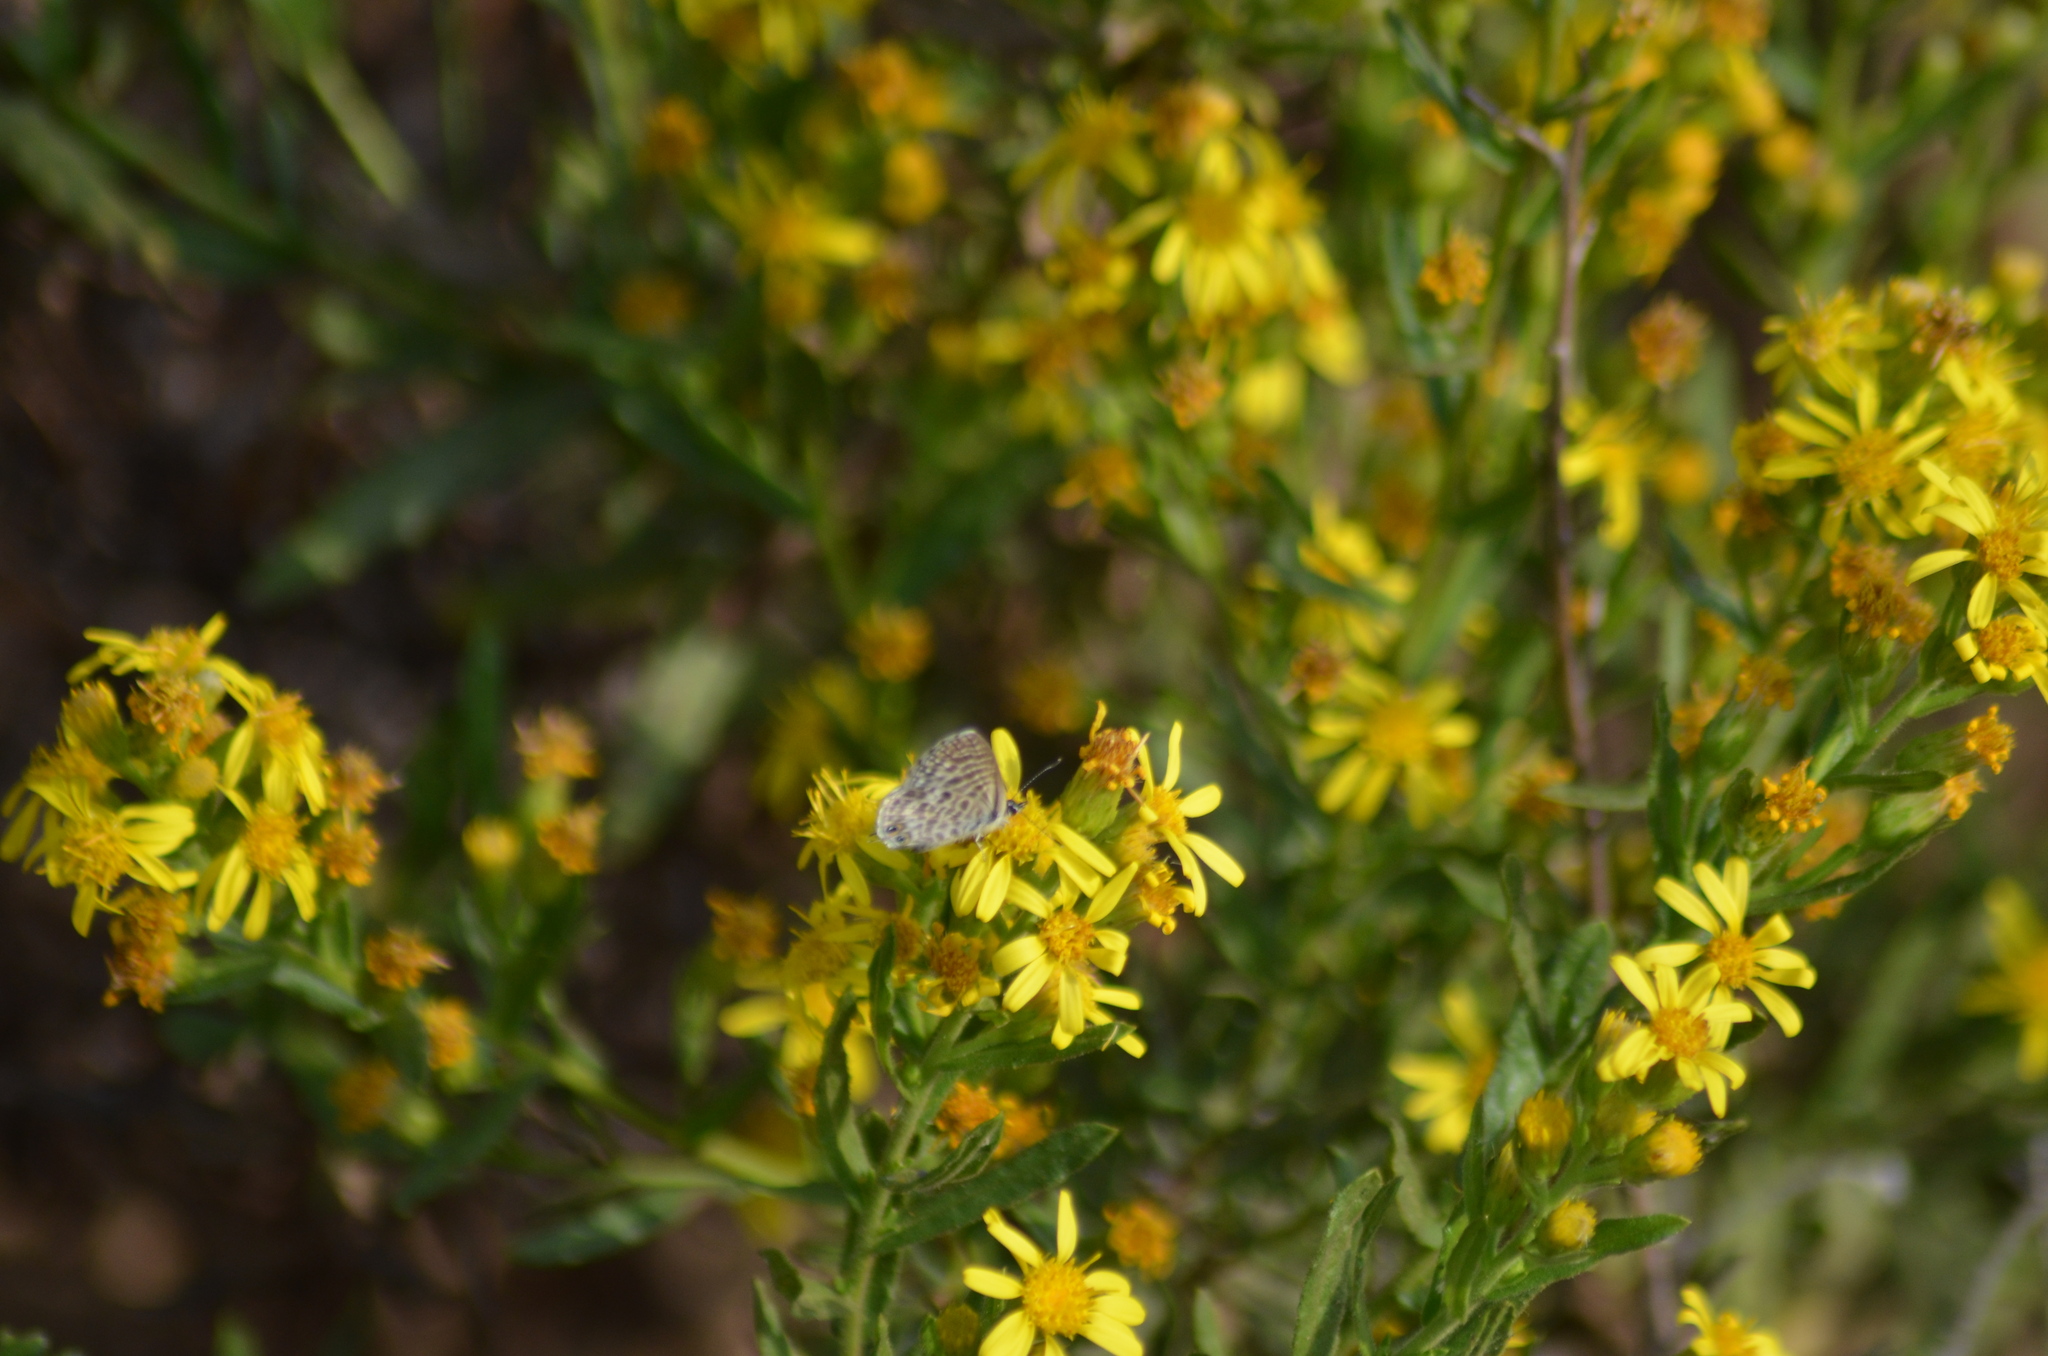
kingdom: Animalia
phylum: Arthropoda
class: Insecta
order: Lepidoptera
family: Lycaenidae
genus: Leptotes
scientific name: Leptotes pirithous
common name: Lang's short-tailed blue
